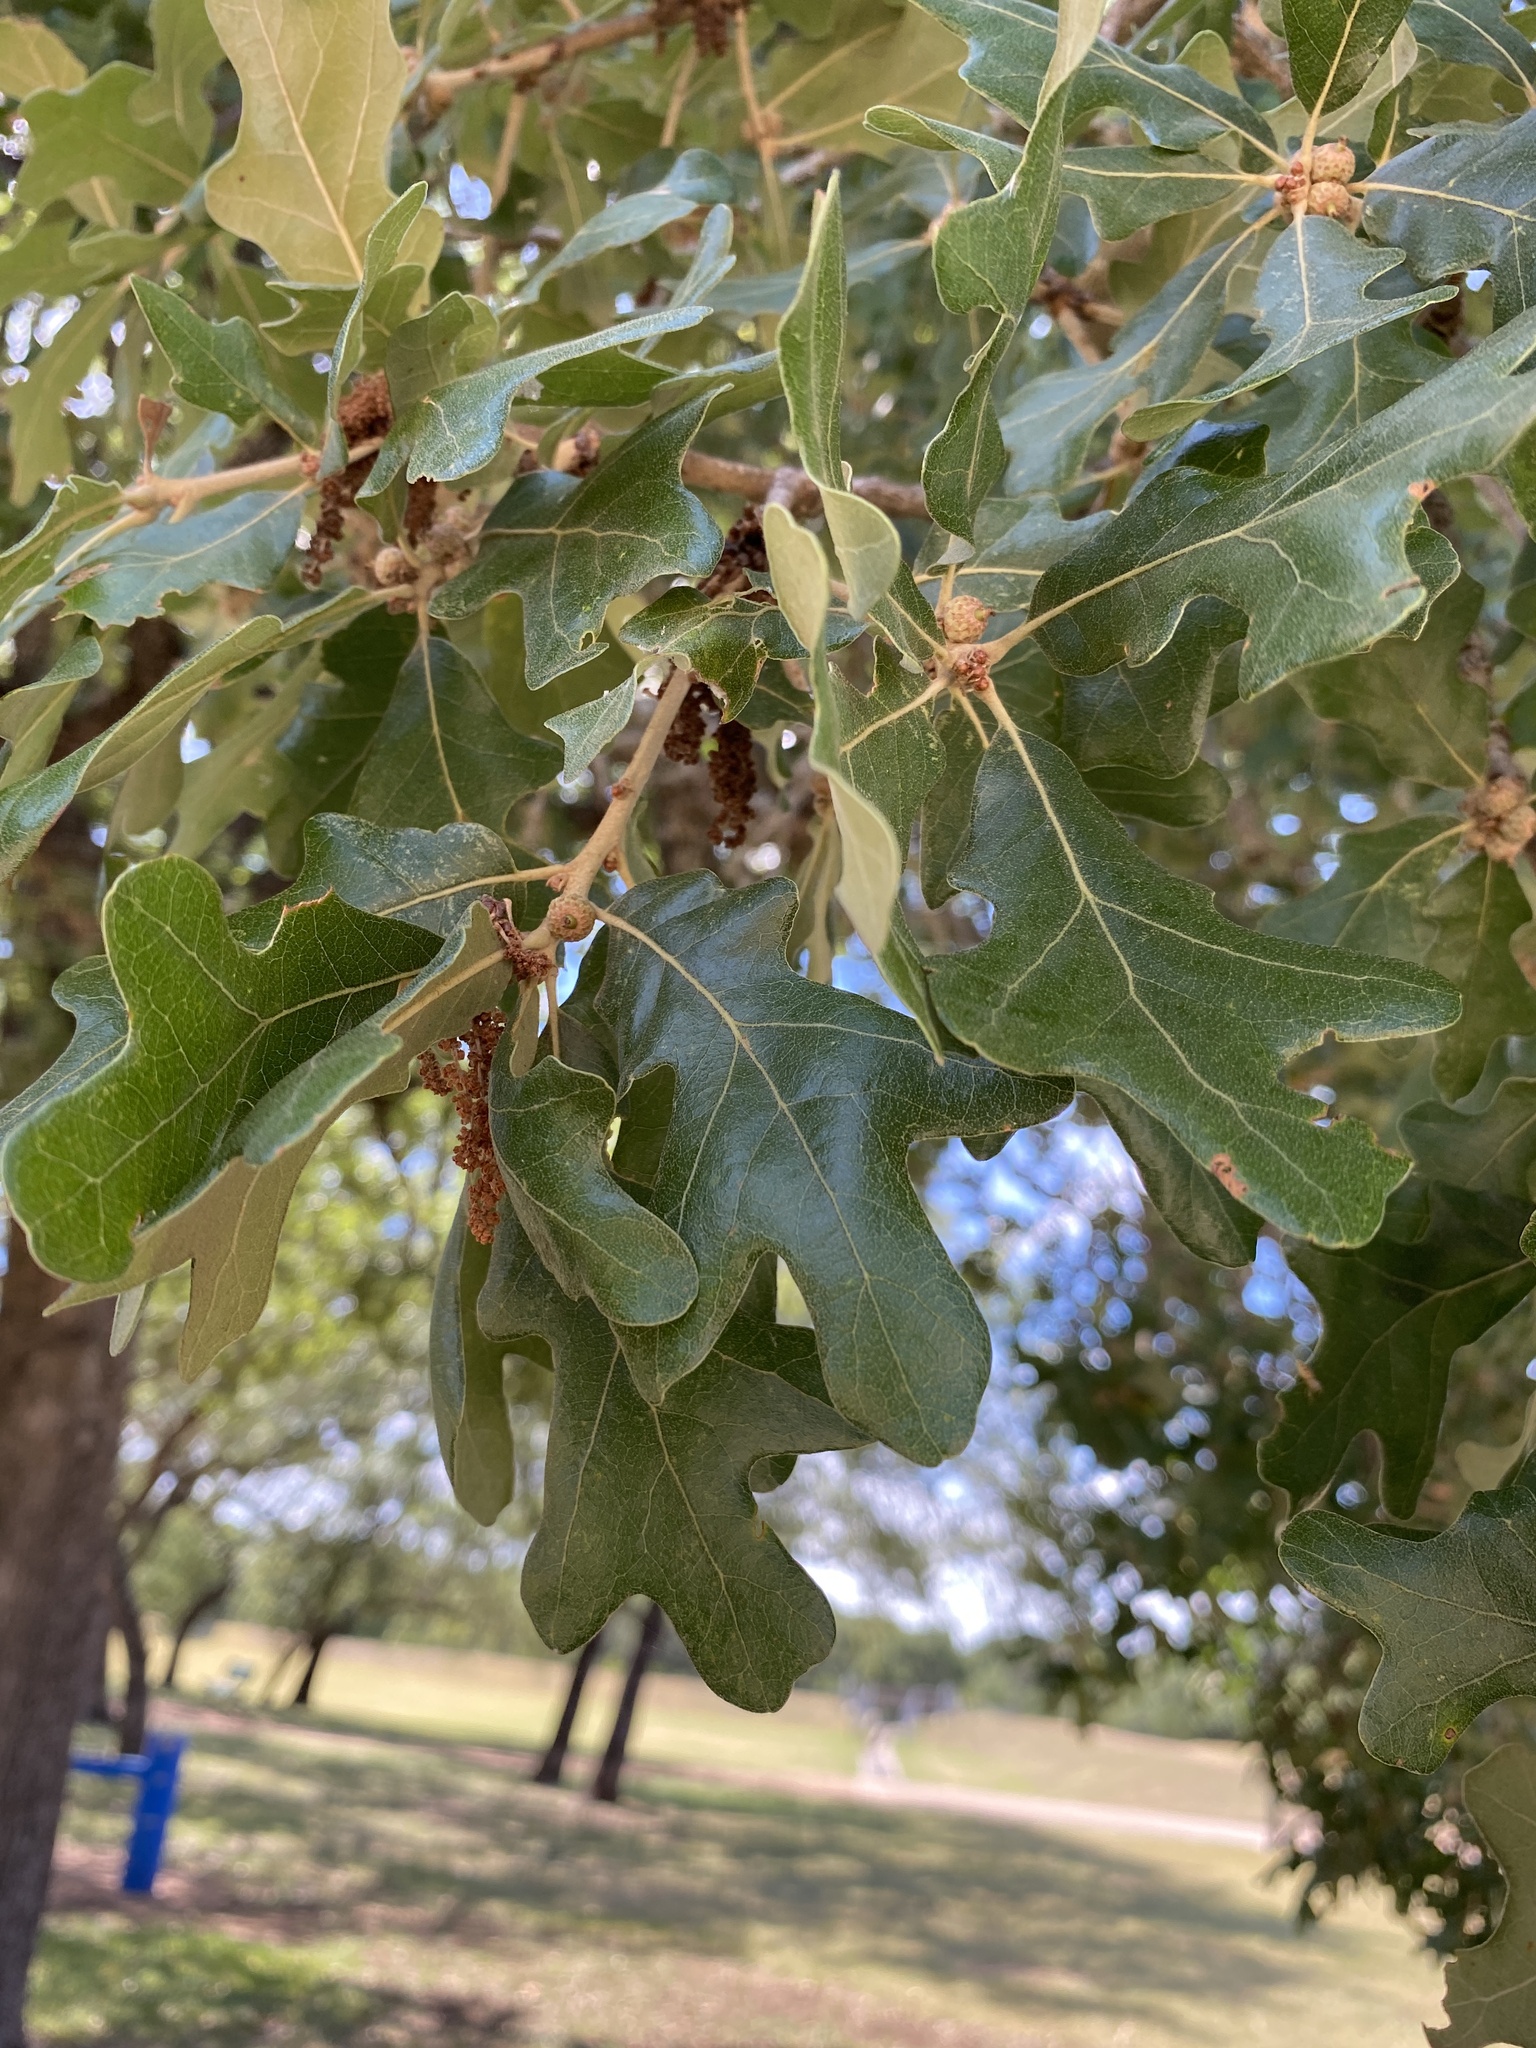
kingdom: Plantae
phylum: Tracheophyta
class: Magnoliopsida
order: Fagales
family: Fagaceae
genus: Quercus
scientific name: Quercus stellata
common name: Post oak
